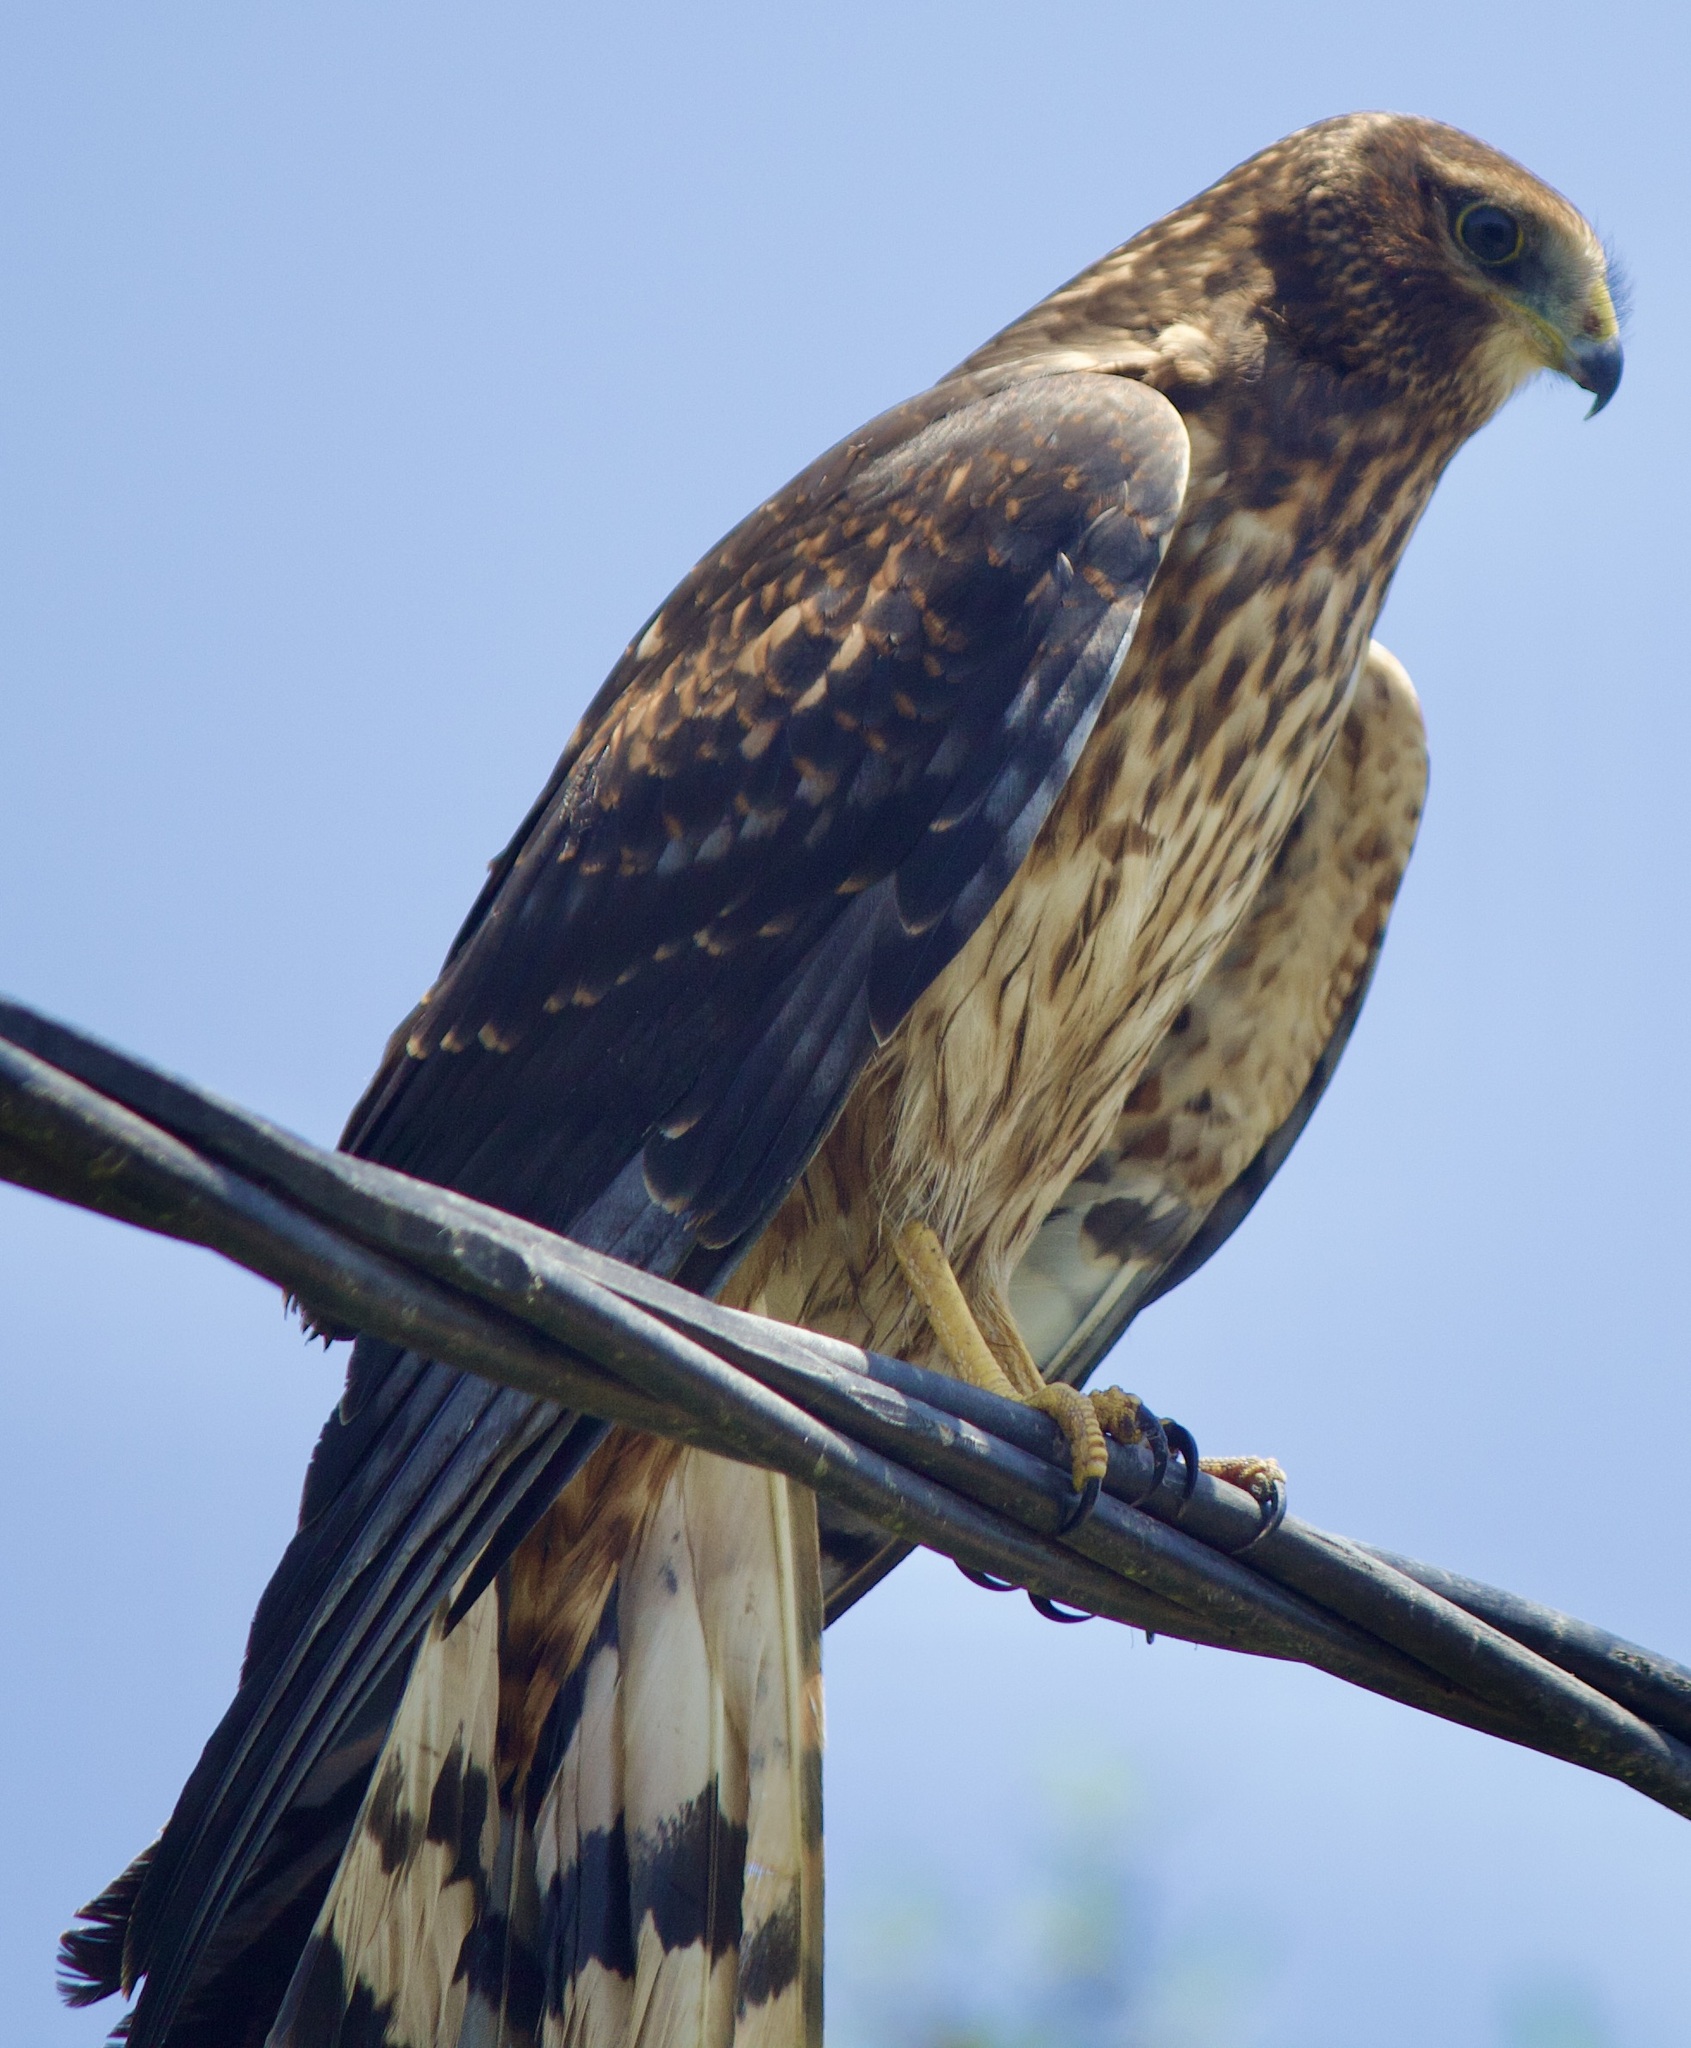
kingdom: Animalia
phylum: Chordata
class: Aves
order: Accipitriformes
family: Accipitridae
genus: Circus
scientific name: Circus cinereus
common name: Cinereous harrier
